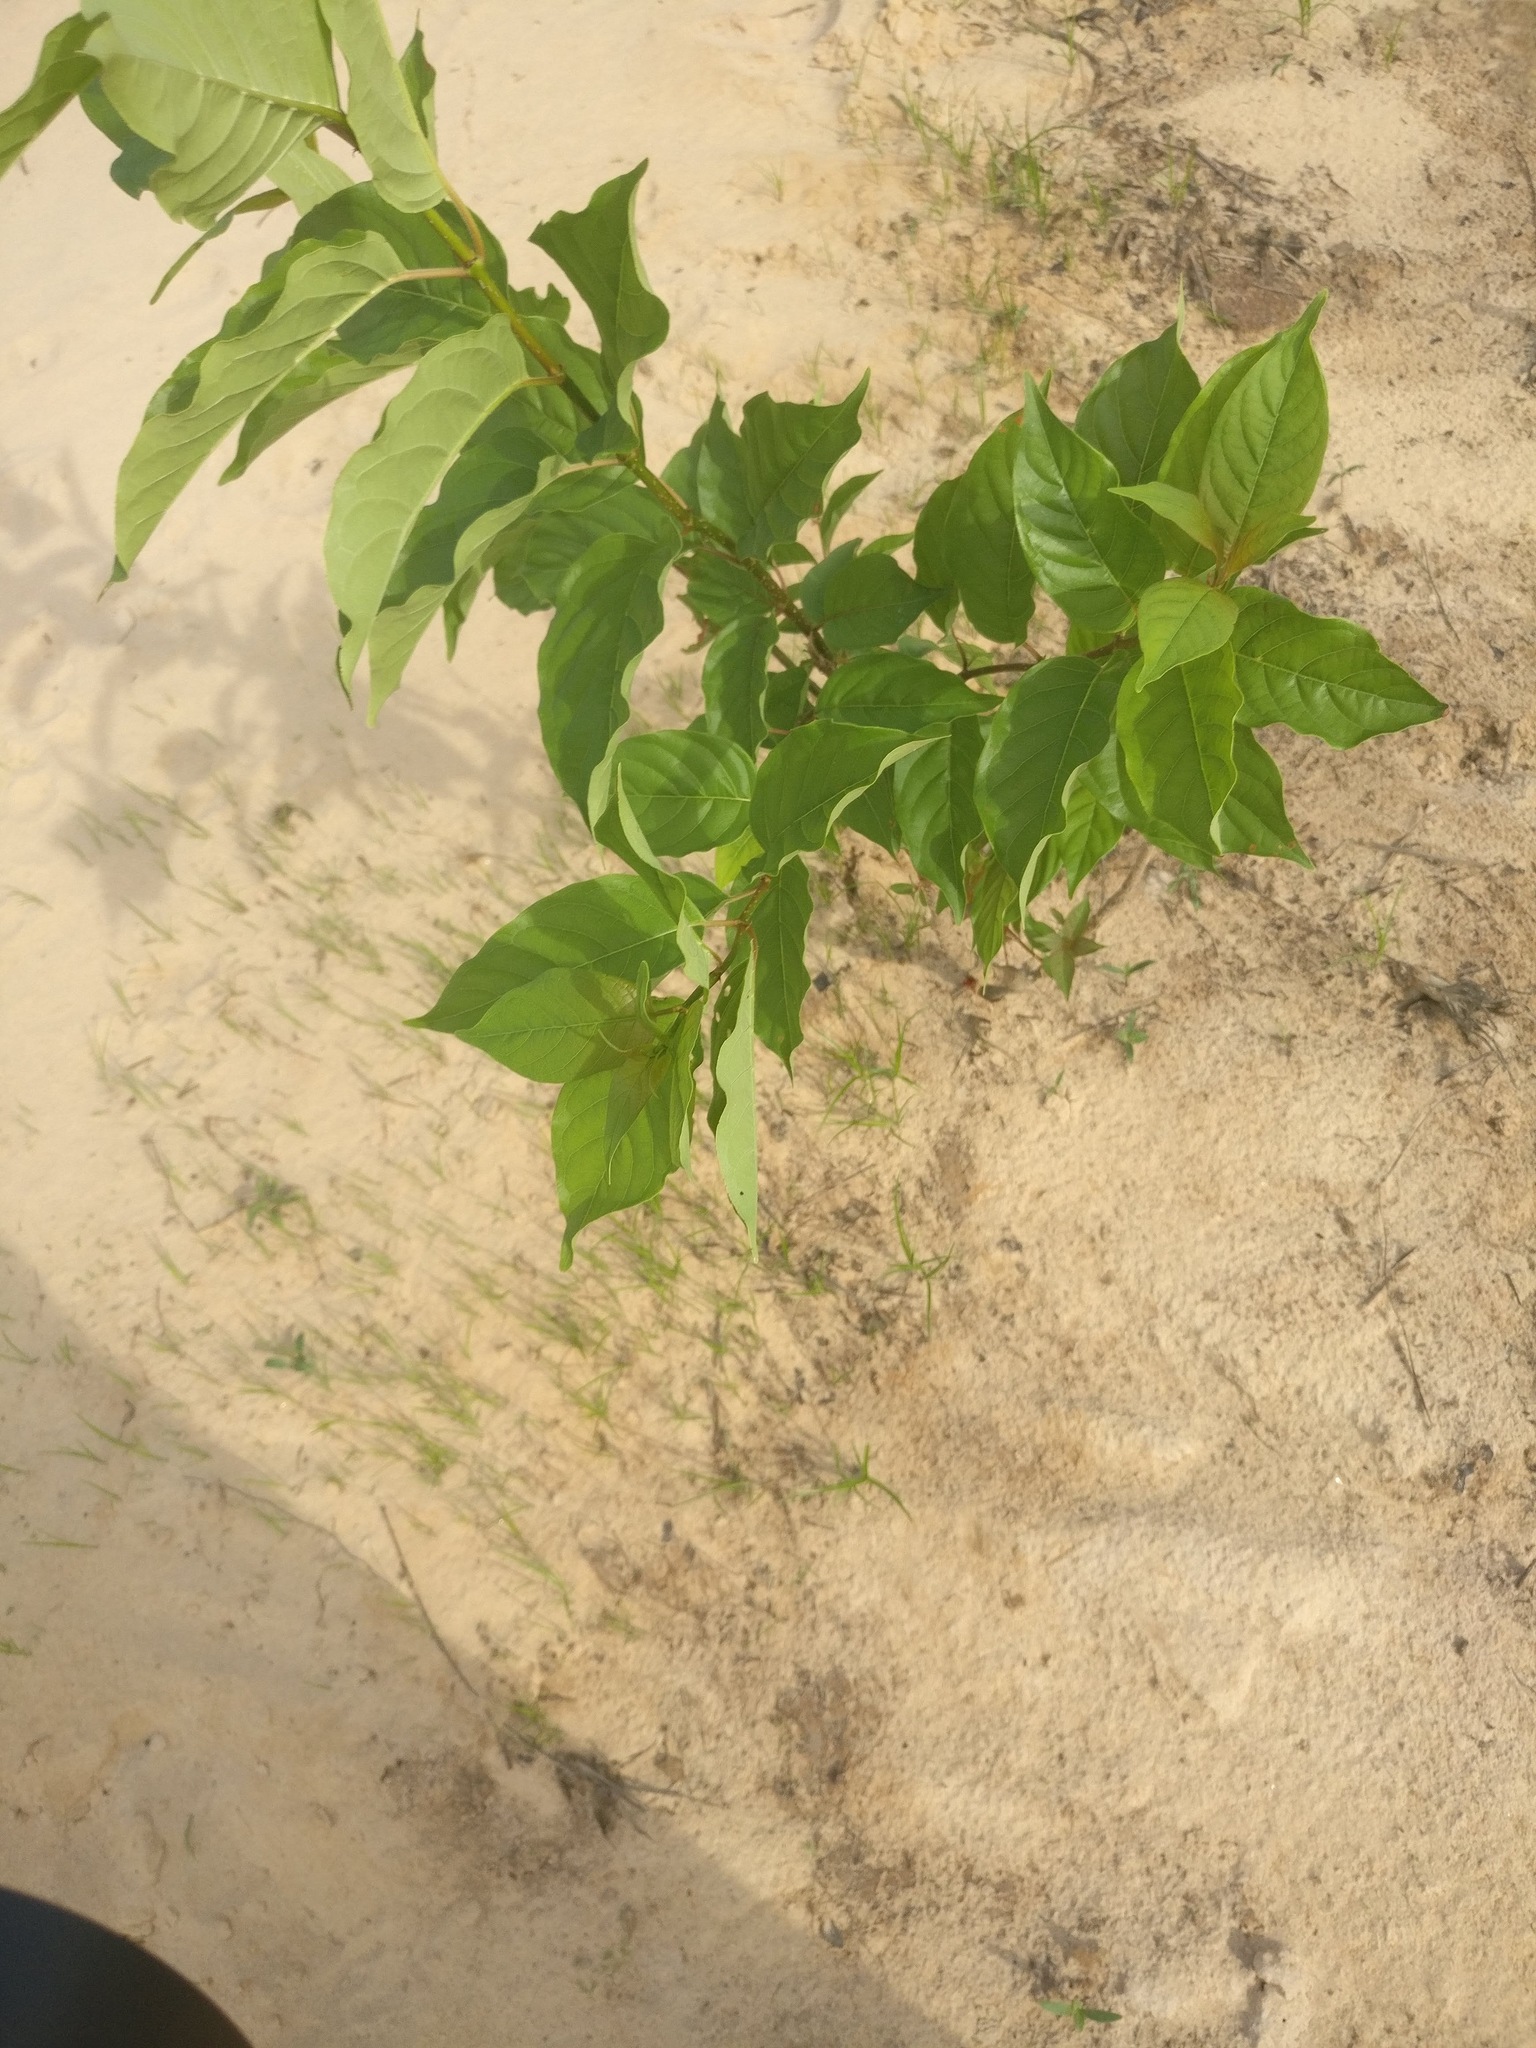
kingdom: Plantae
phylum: Tracheophyta
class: Magnoliopsida
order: Gentianales
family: Rubiaceae
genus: Cephalanthus
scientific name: Cephalanthus occidentalis
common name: Button-willow
